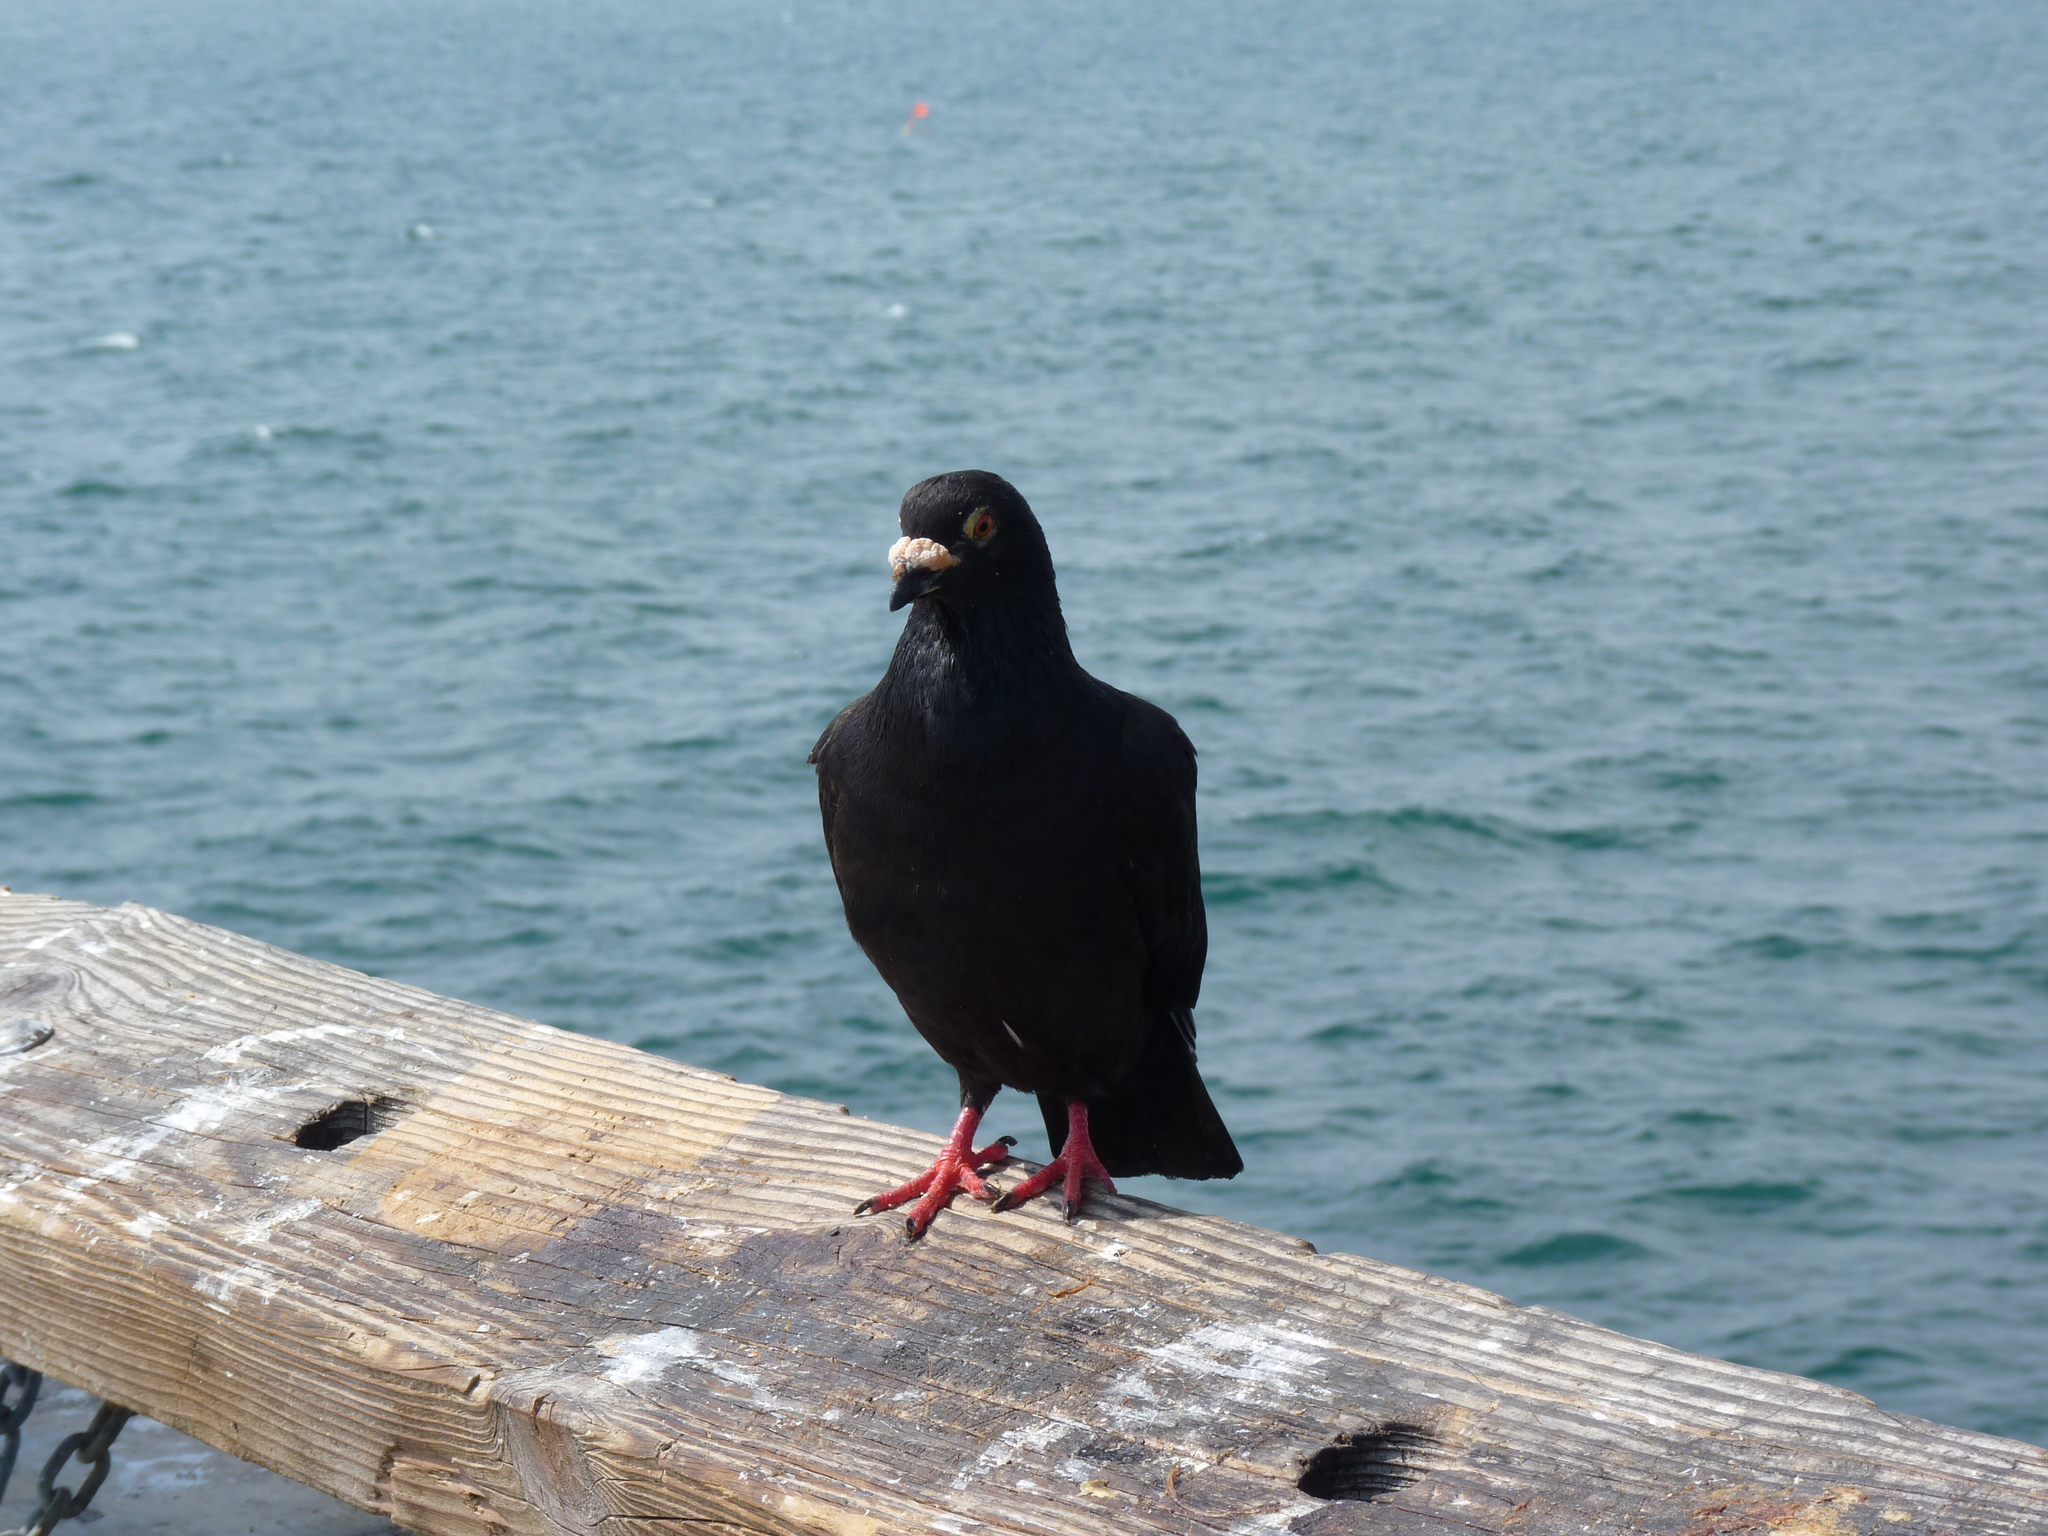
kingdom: Animalia
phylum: Chordata
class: Aves
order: Columbiformes
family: Columbidae
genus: Columba
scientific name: Columba livia
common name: Rock pigeon
